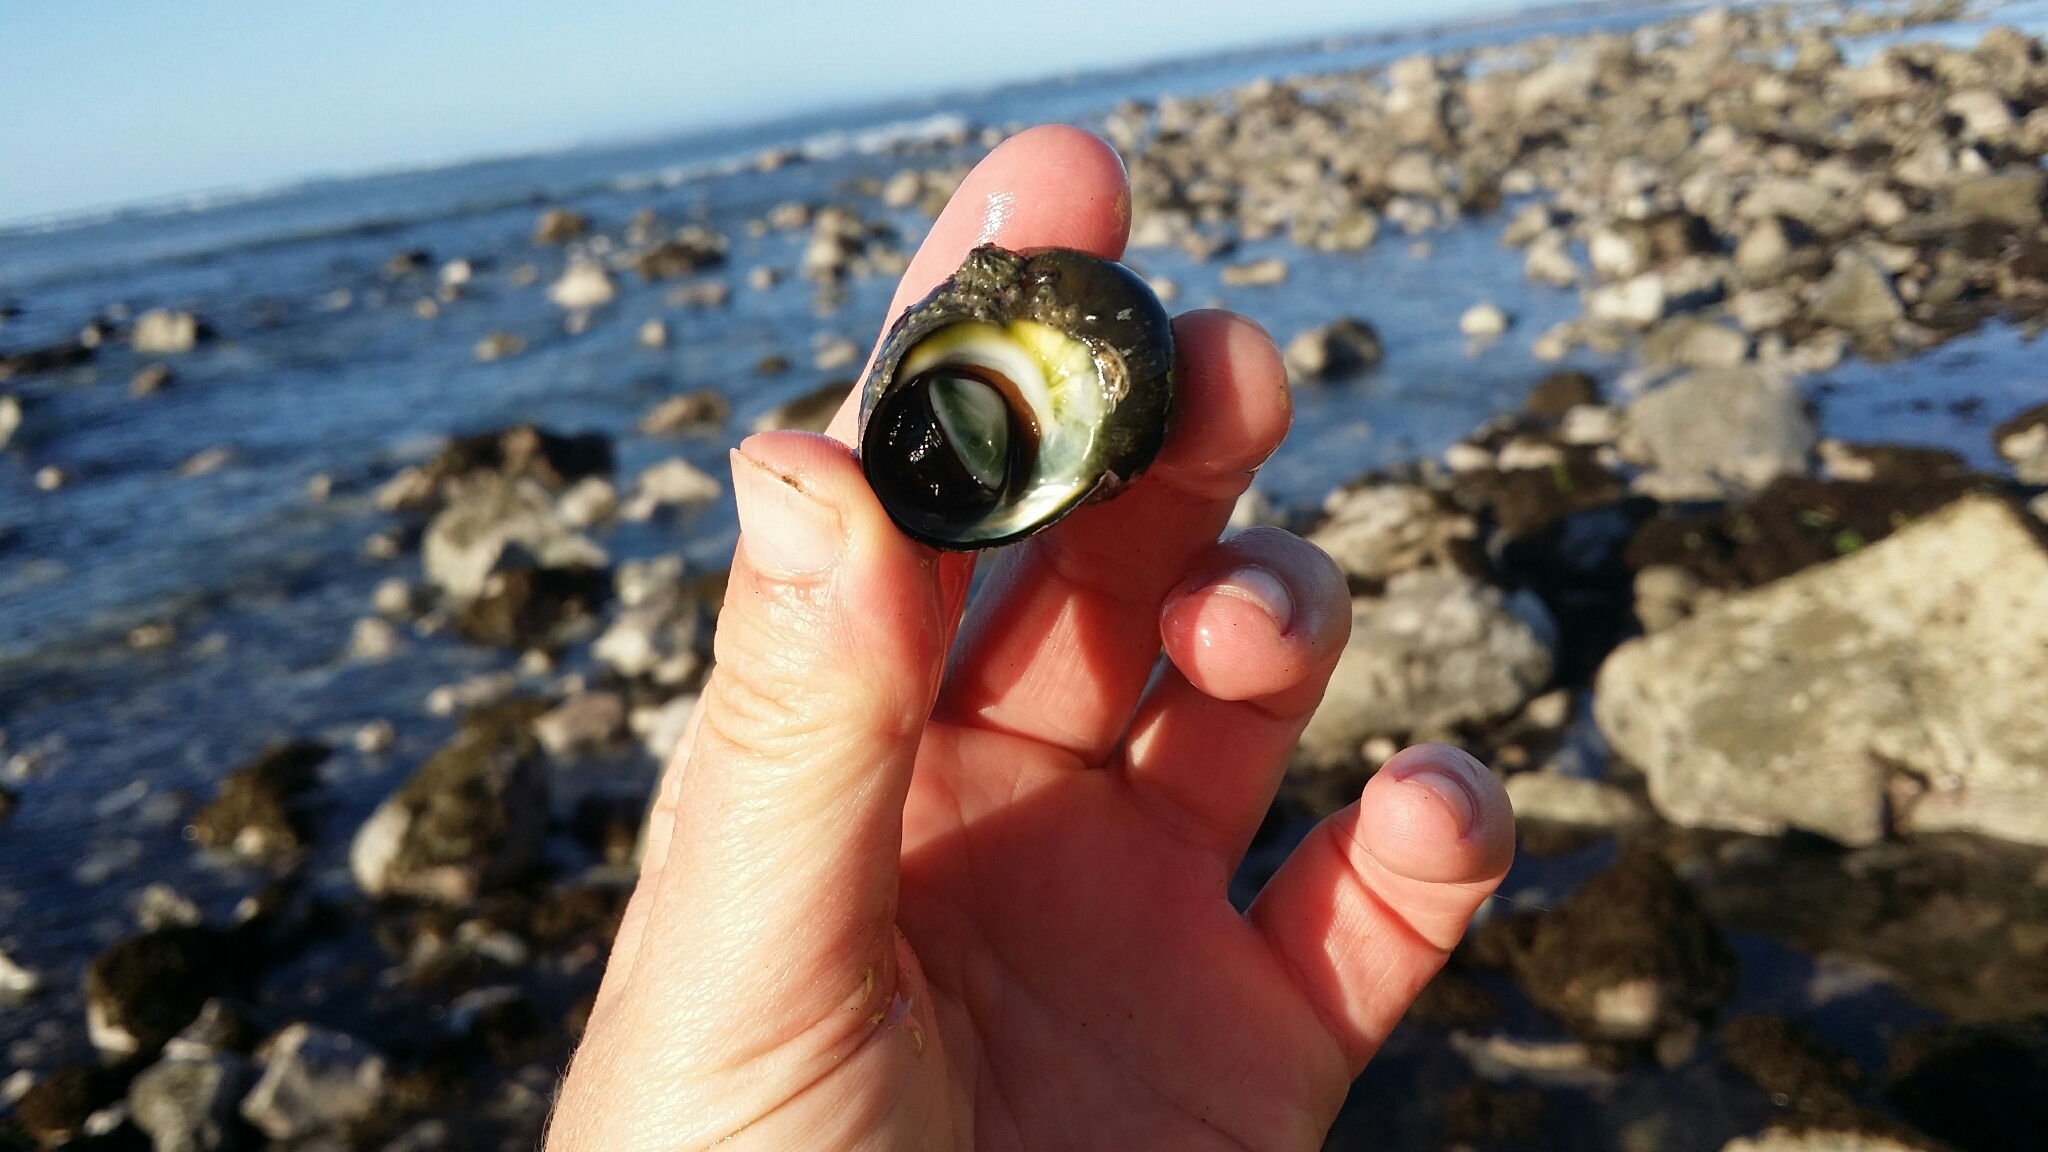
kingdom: Animalia
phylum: Mollusca
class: Gastropoda
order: Trochida
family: Turbinidae
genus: Lunella
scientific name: Lunella smaragda
